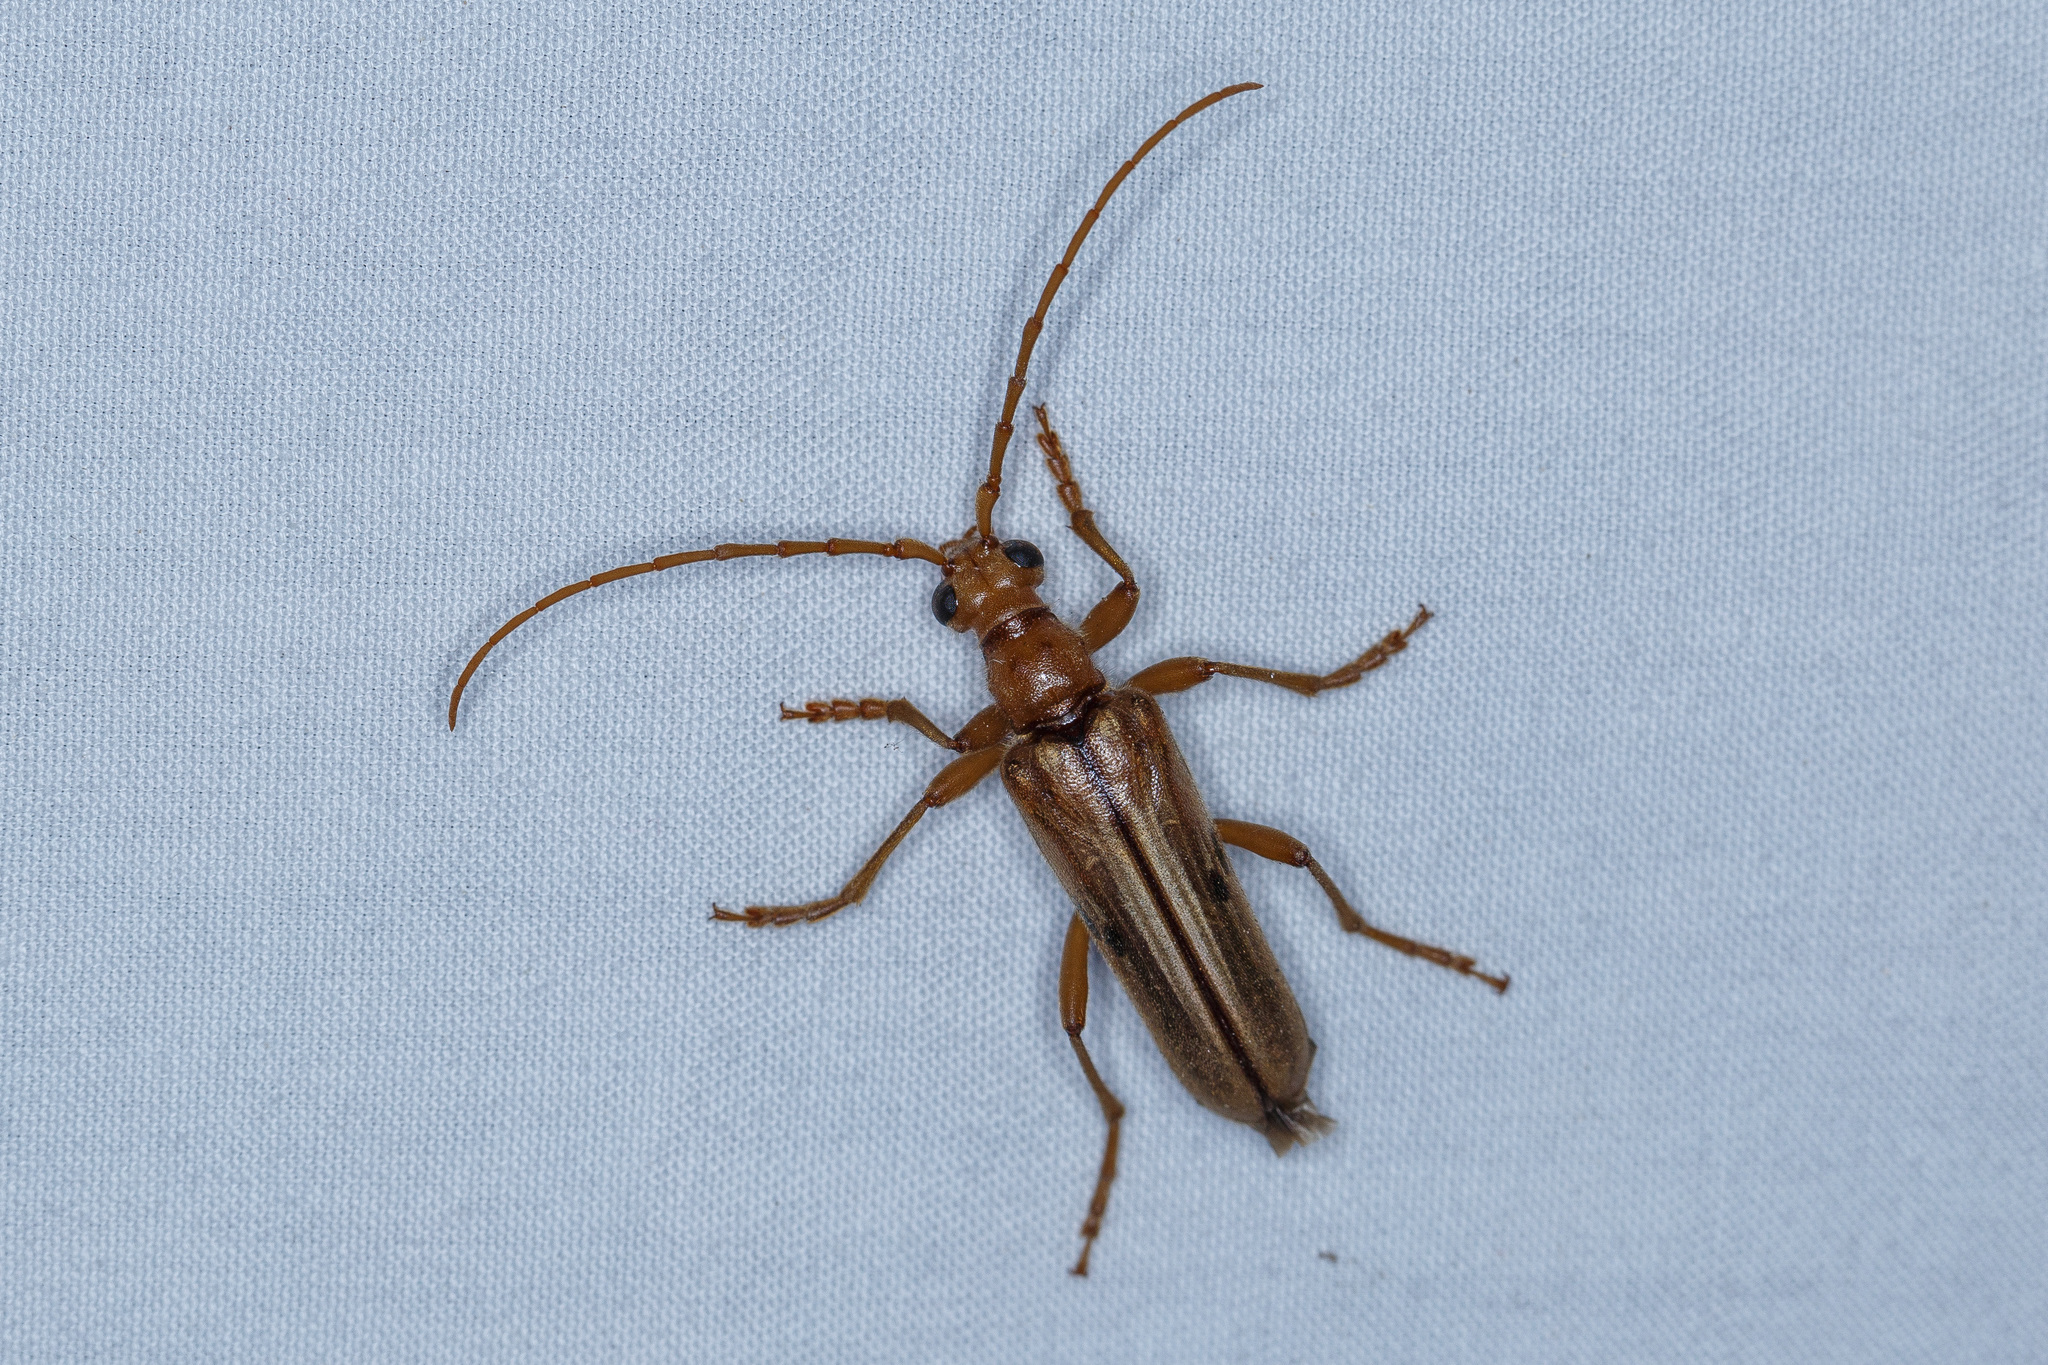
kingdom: Animalia
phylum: Arthropoda
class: Insecta
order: Coleoptera
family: Cerambycidae
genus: Ortholeptura
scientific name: Ortholeptura valida
